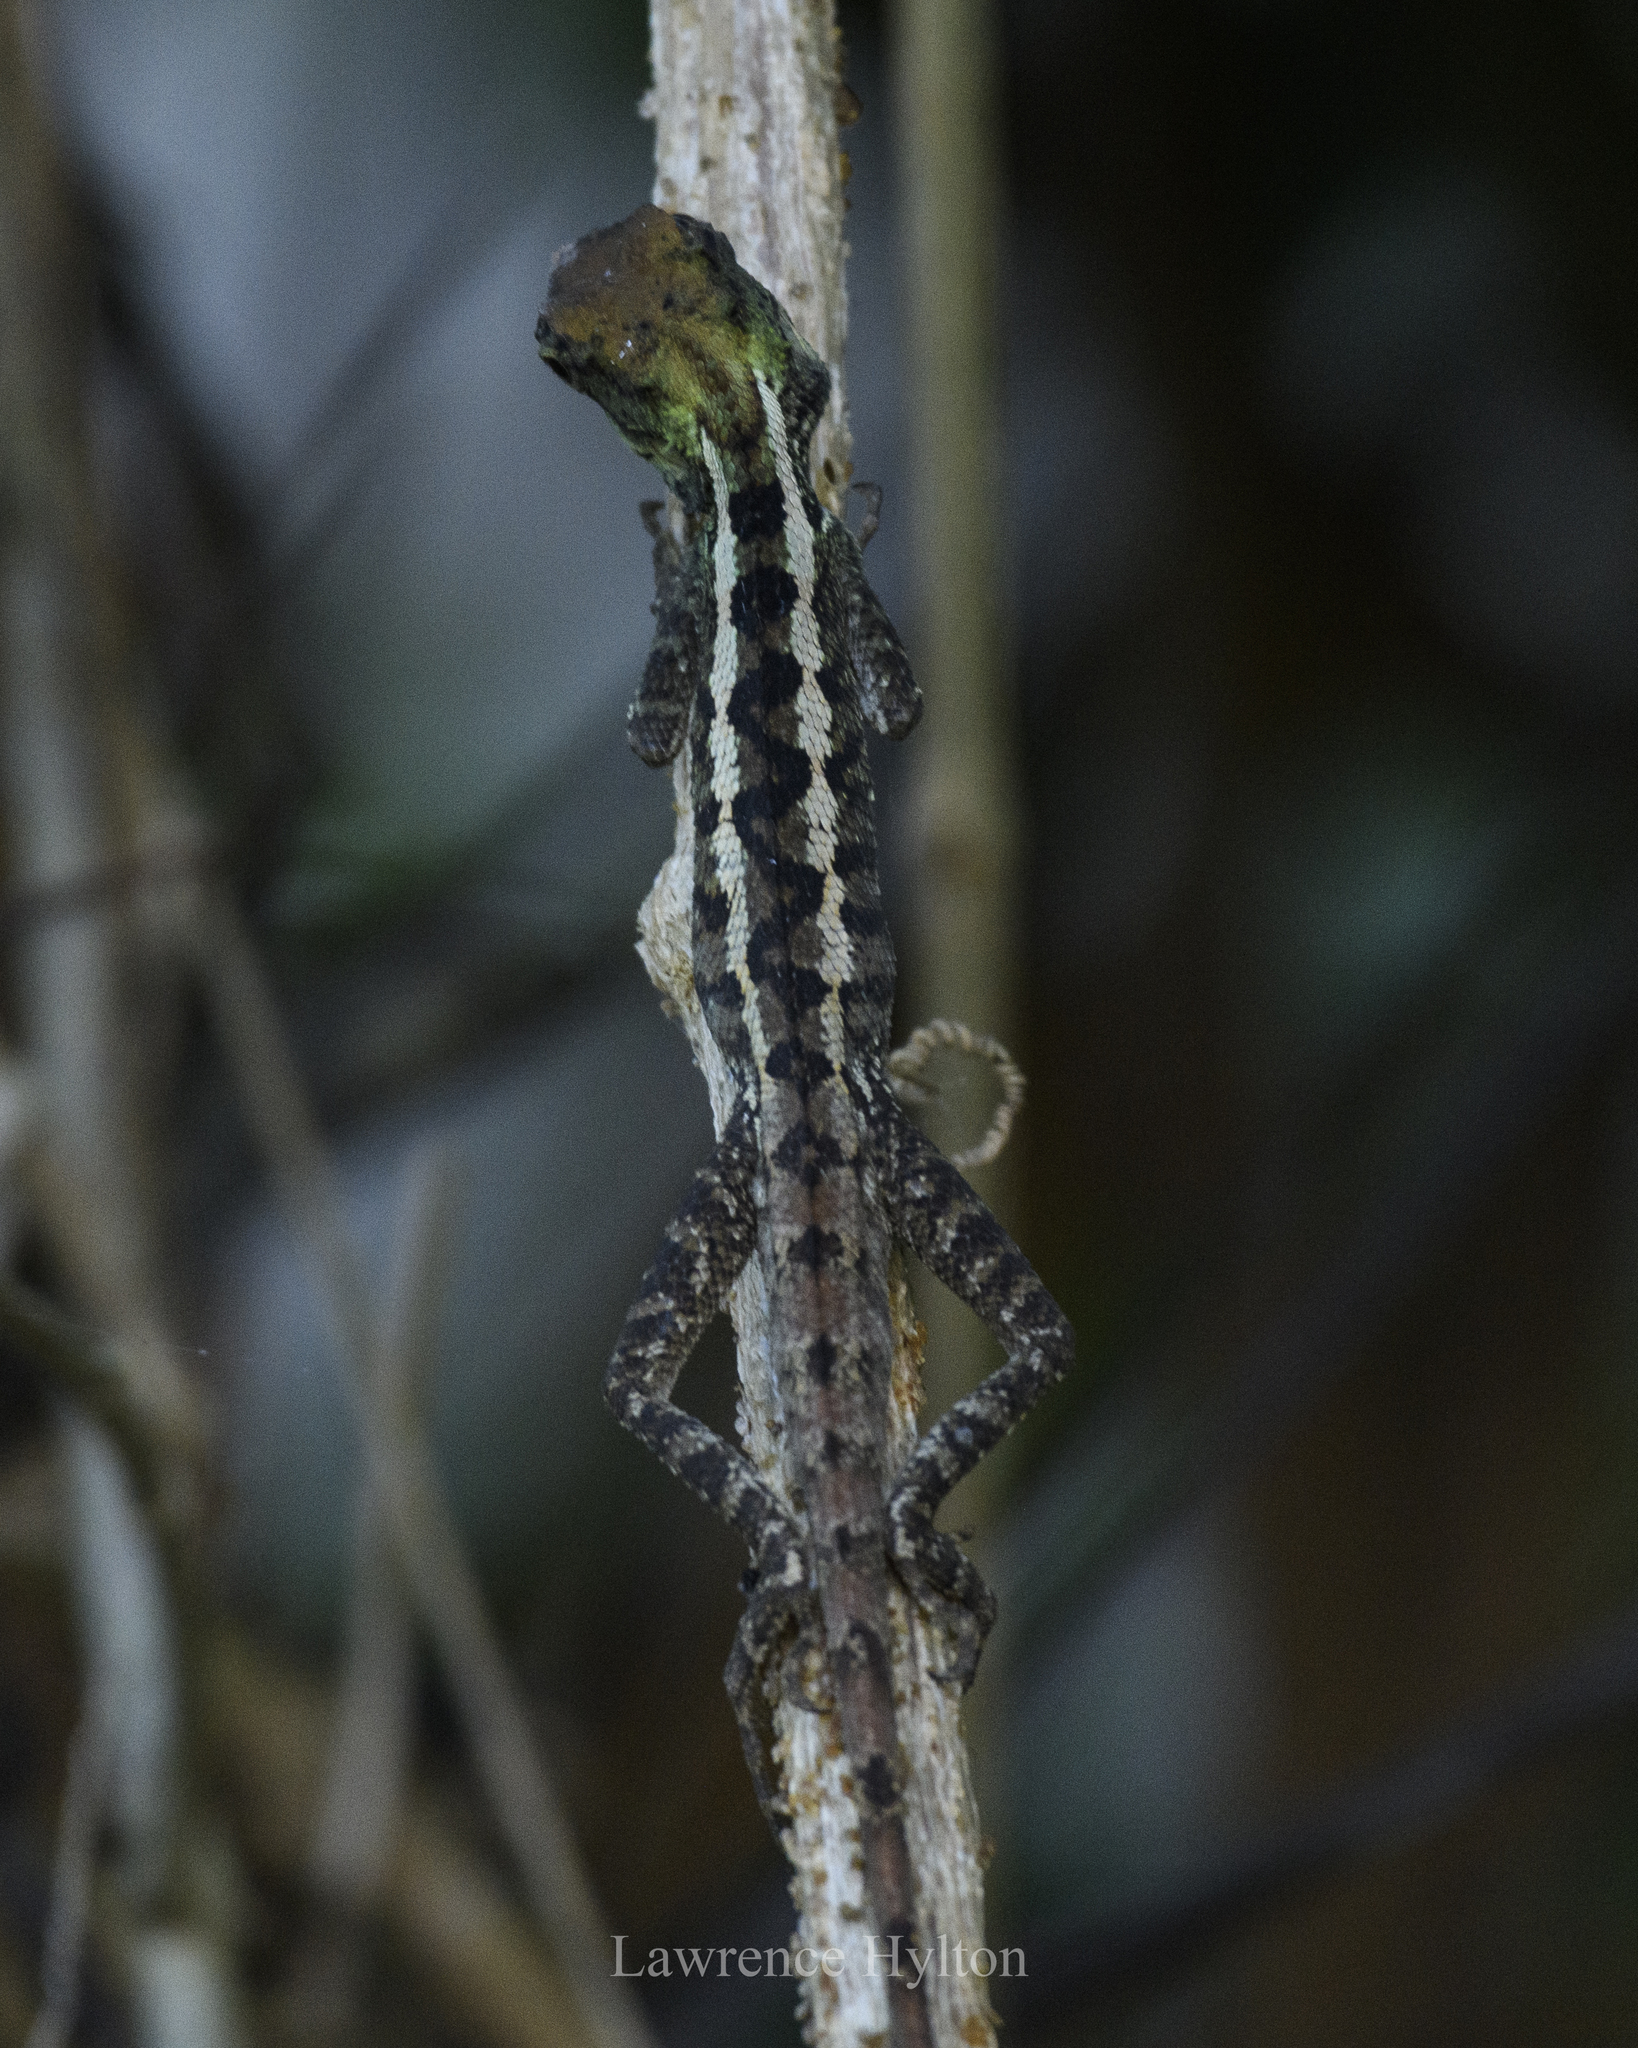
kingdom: Animalia
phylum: Chordata
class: Squamata
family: Agamidae
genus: Calotes
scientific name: Calotes emma
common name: Thailand bloodsucker
